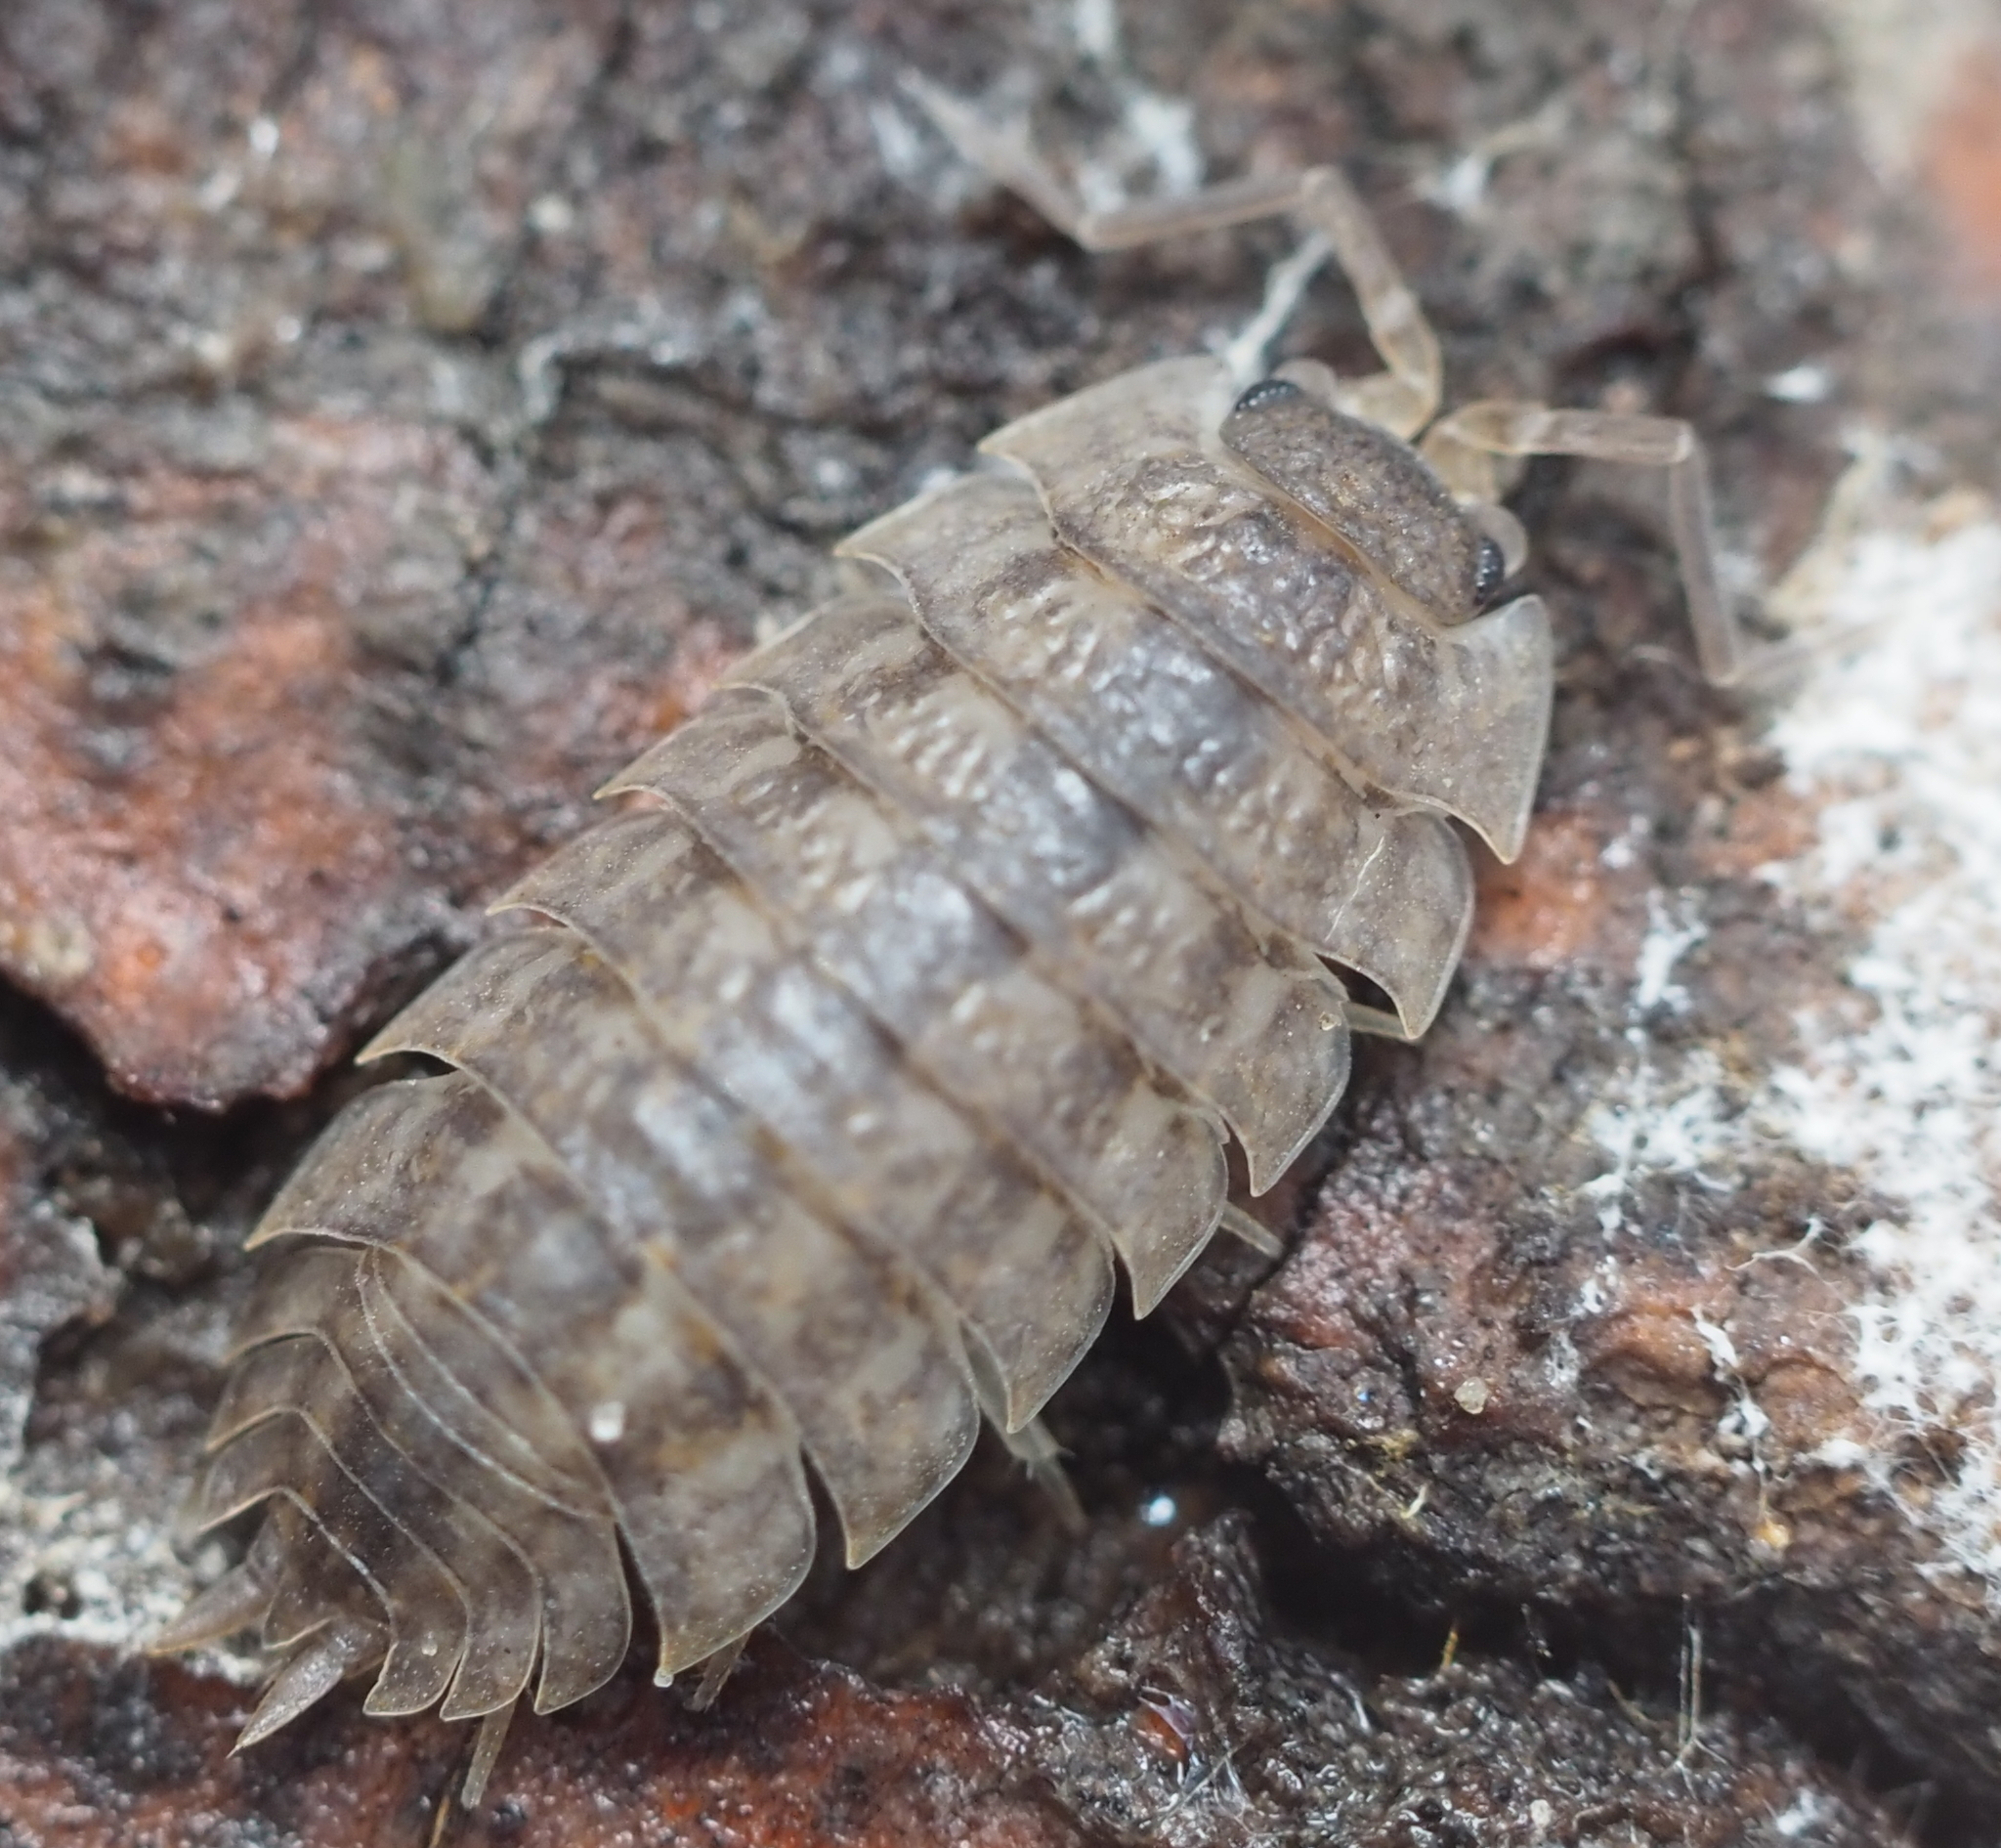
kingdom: Animalia
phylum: Arthropoda
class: Malacostraca
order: Isopoda
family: Trachelipodidae
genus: Trachelipus
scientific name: Trachelipus rathkii
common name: Isopod
